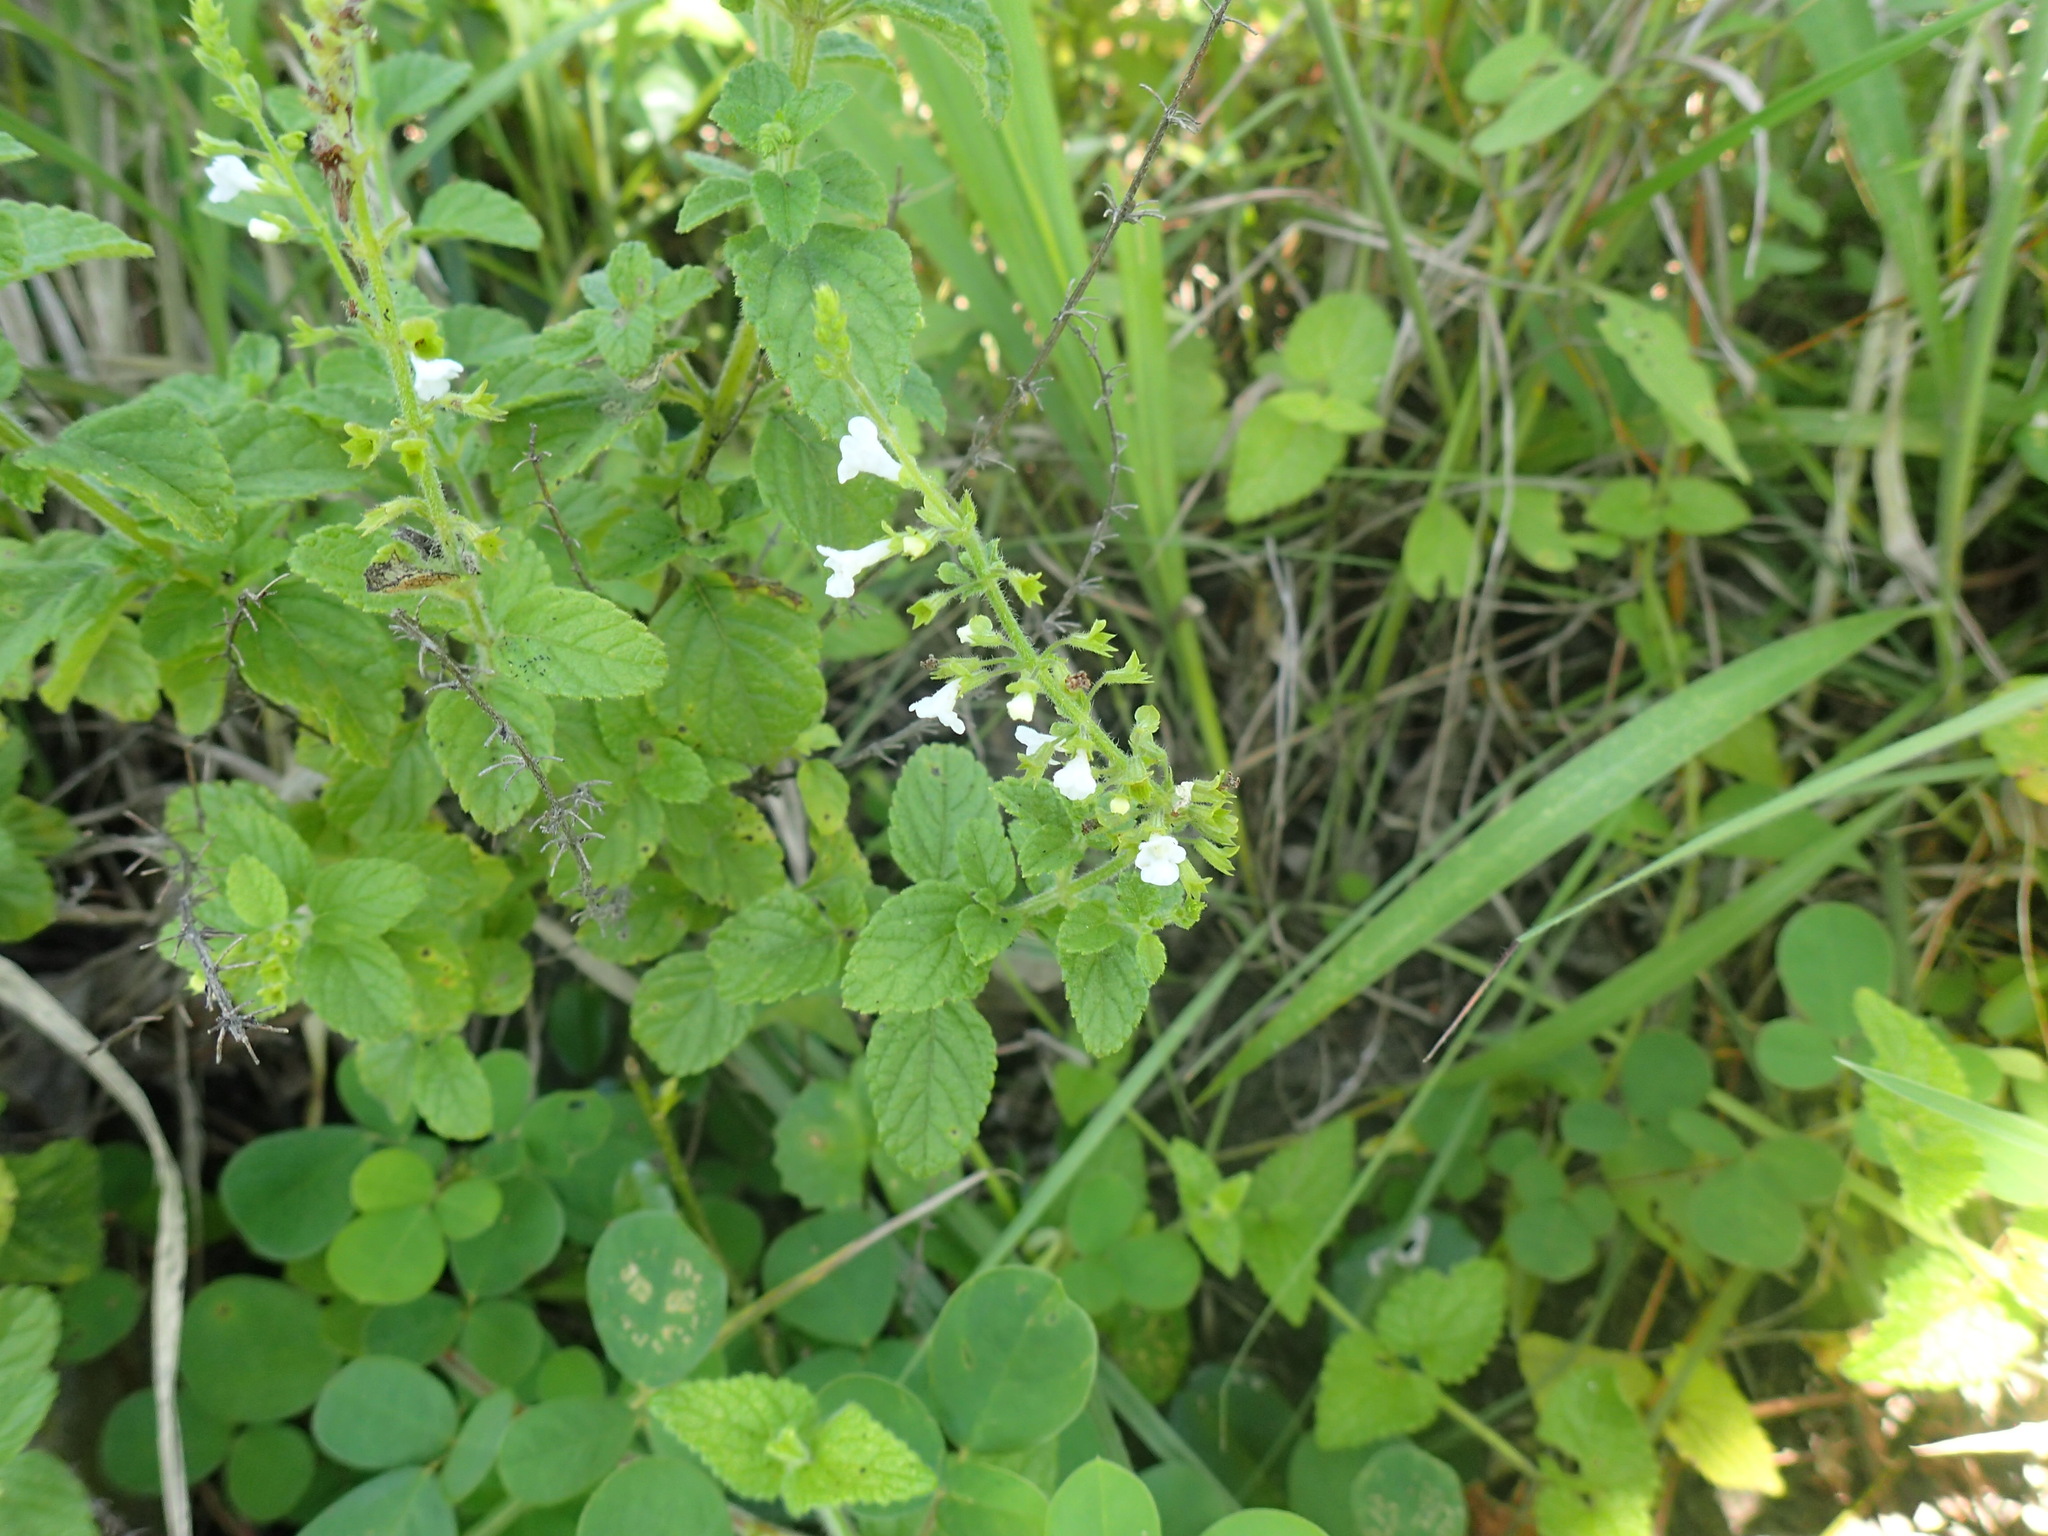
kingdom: Plantae
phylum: Tracheophyta
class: Magnoliopsida
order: Lamiales
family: Lamiaceae
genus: Endostemon
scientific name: Endostemon obtusifolius
